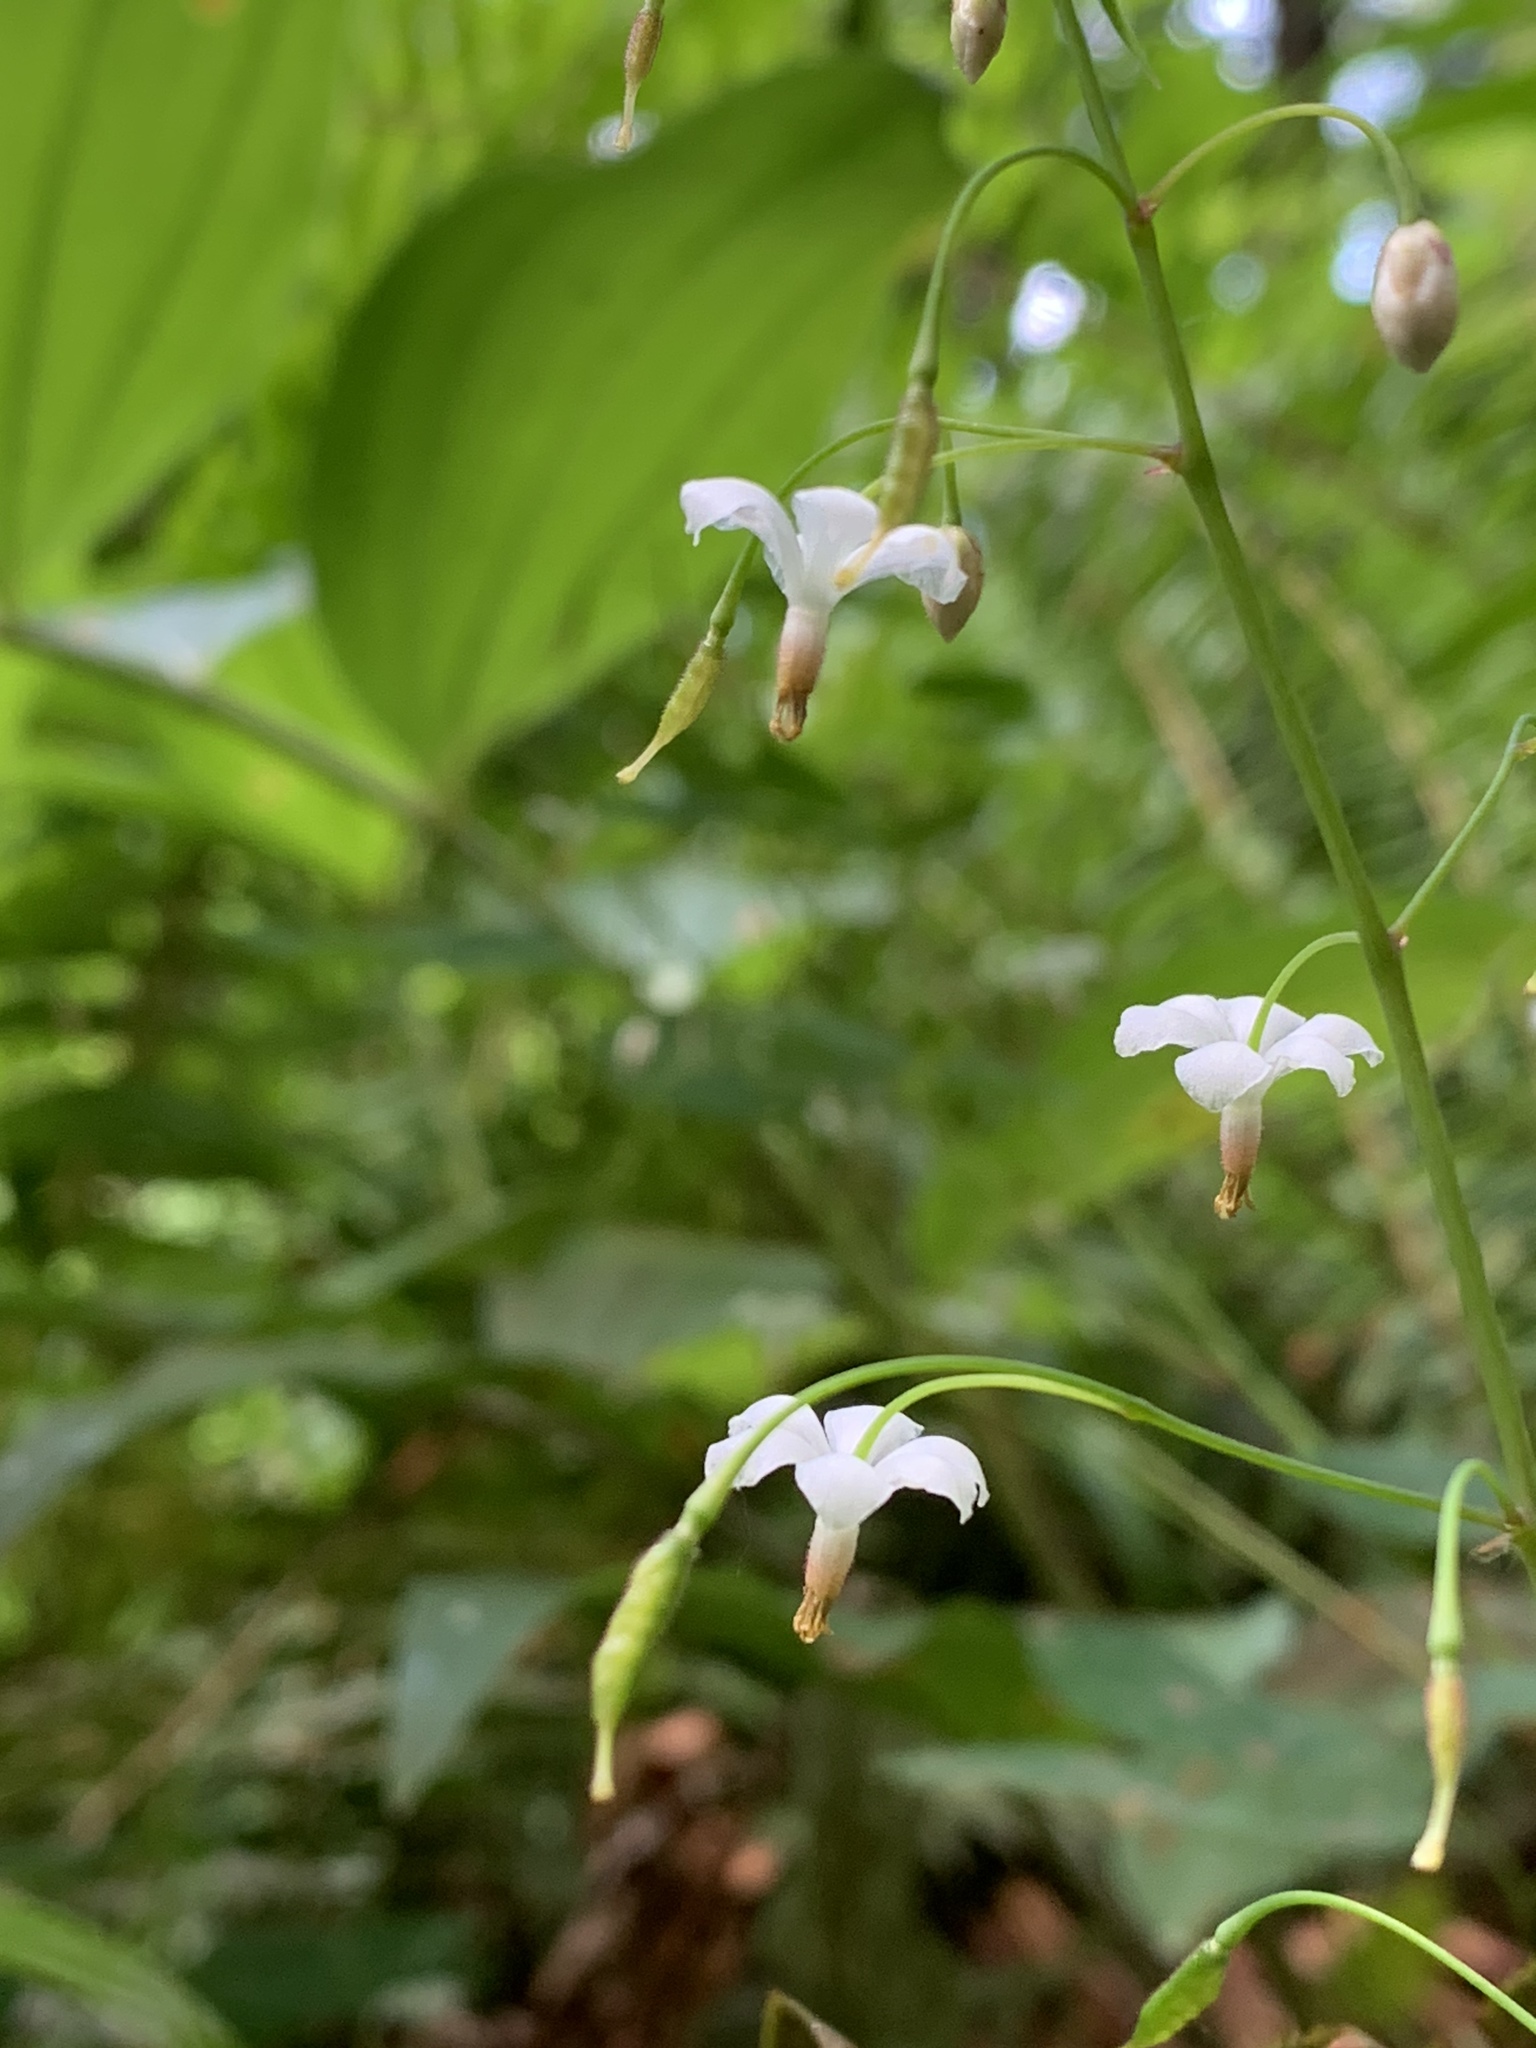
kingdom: Plantae
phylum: Tracheophyta
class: Magnoliopsida
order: Ranunculales
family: Berberidaceae
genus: Vancouveria
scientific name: Vancouveria hexandra
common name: Northern inside-out-flower
